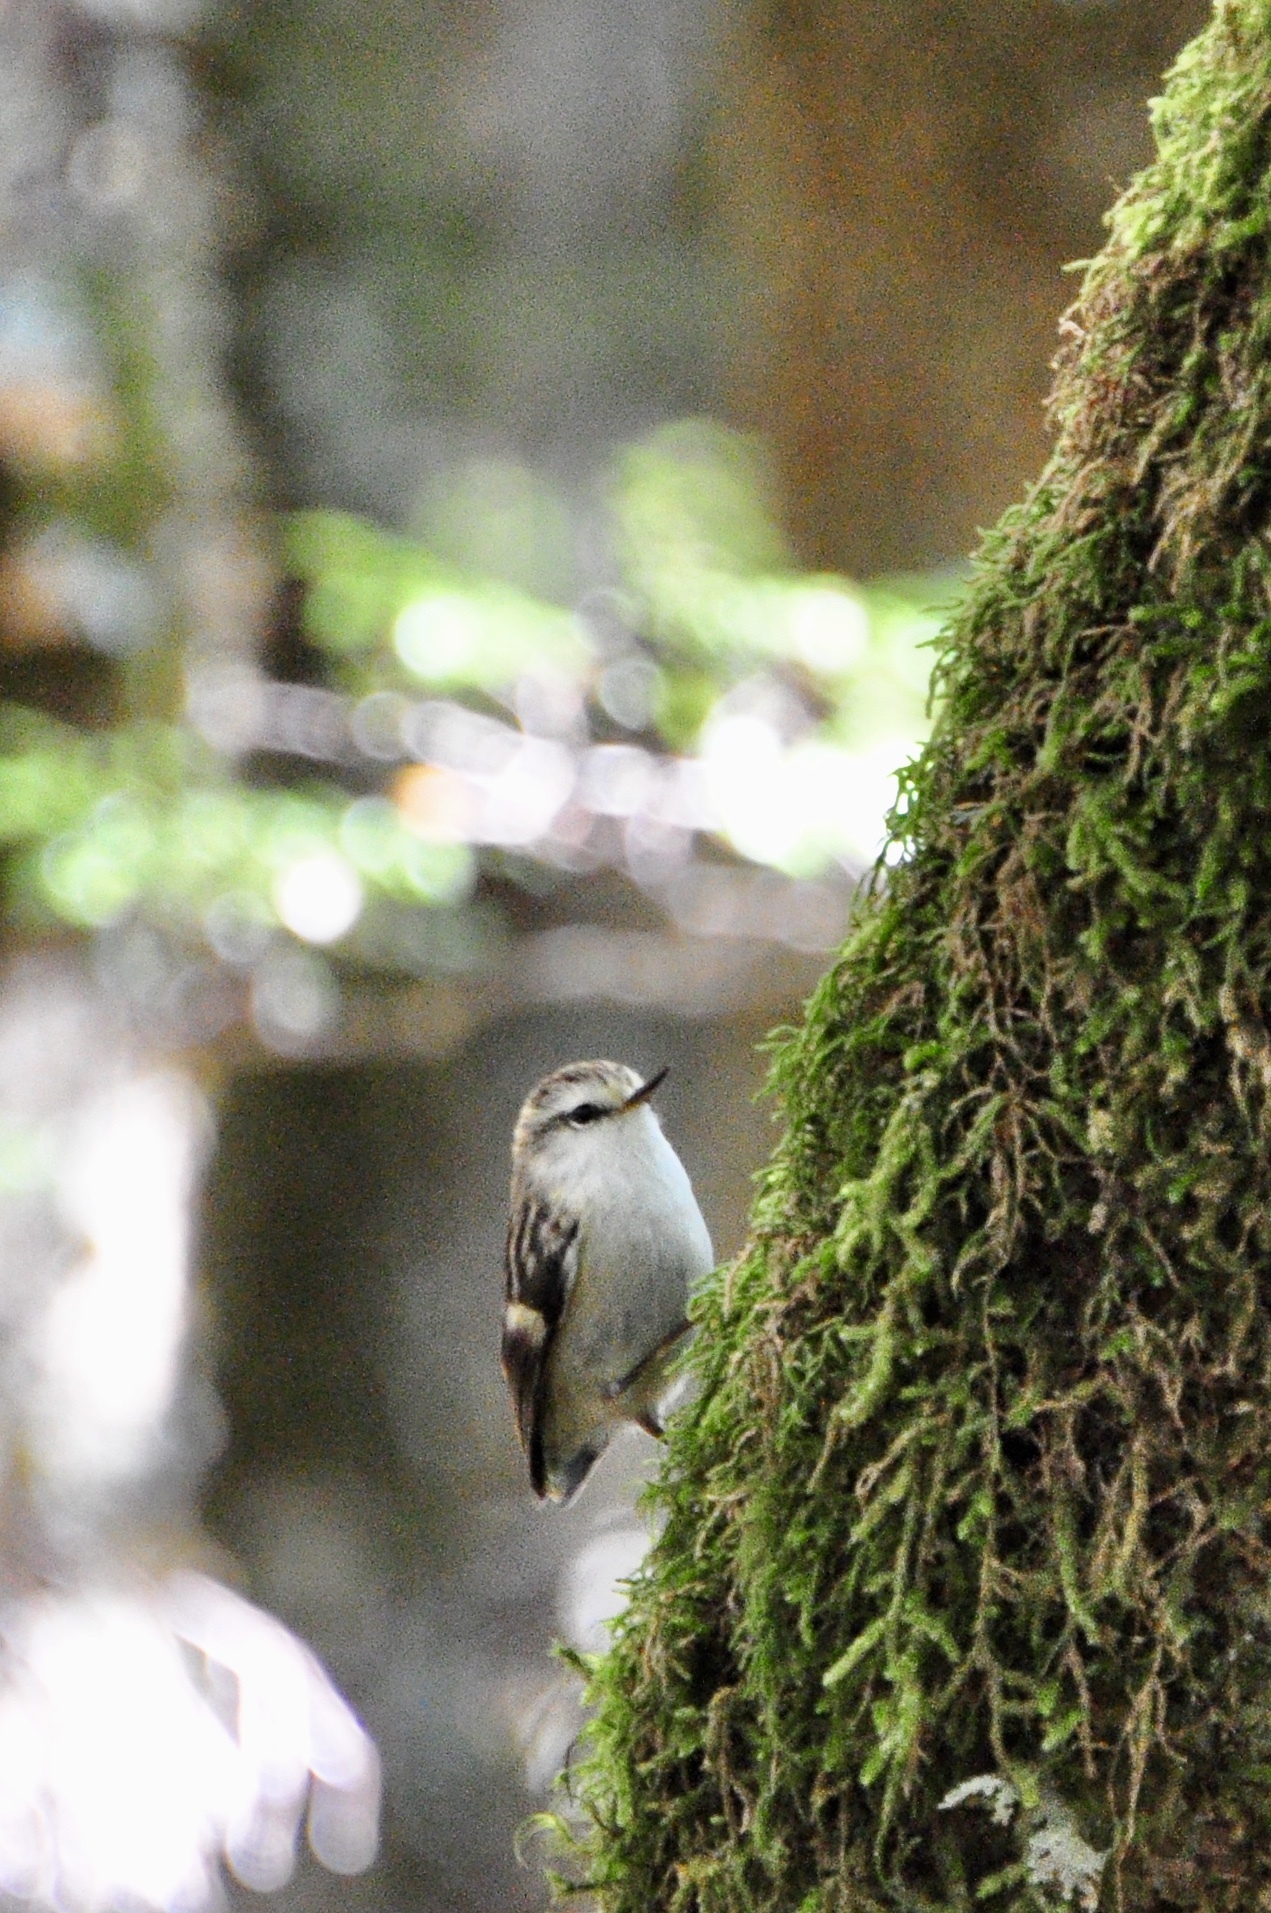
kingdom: Animalia
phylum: Chordata
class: Aves
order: Passeriformes
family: Acanthisittidae
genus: Acanthisitta
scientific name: Acanthisitta chloris
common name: Rifleman
